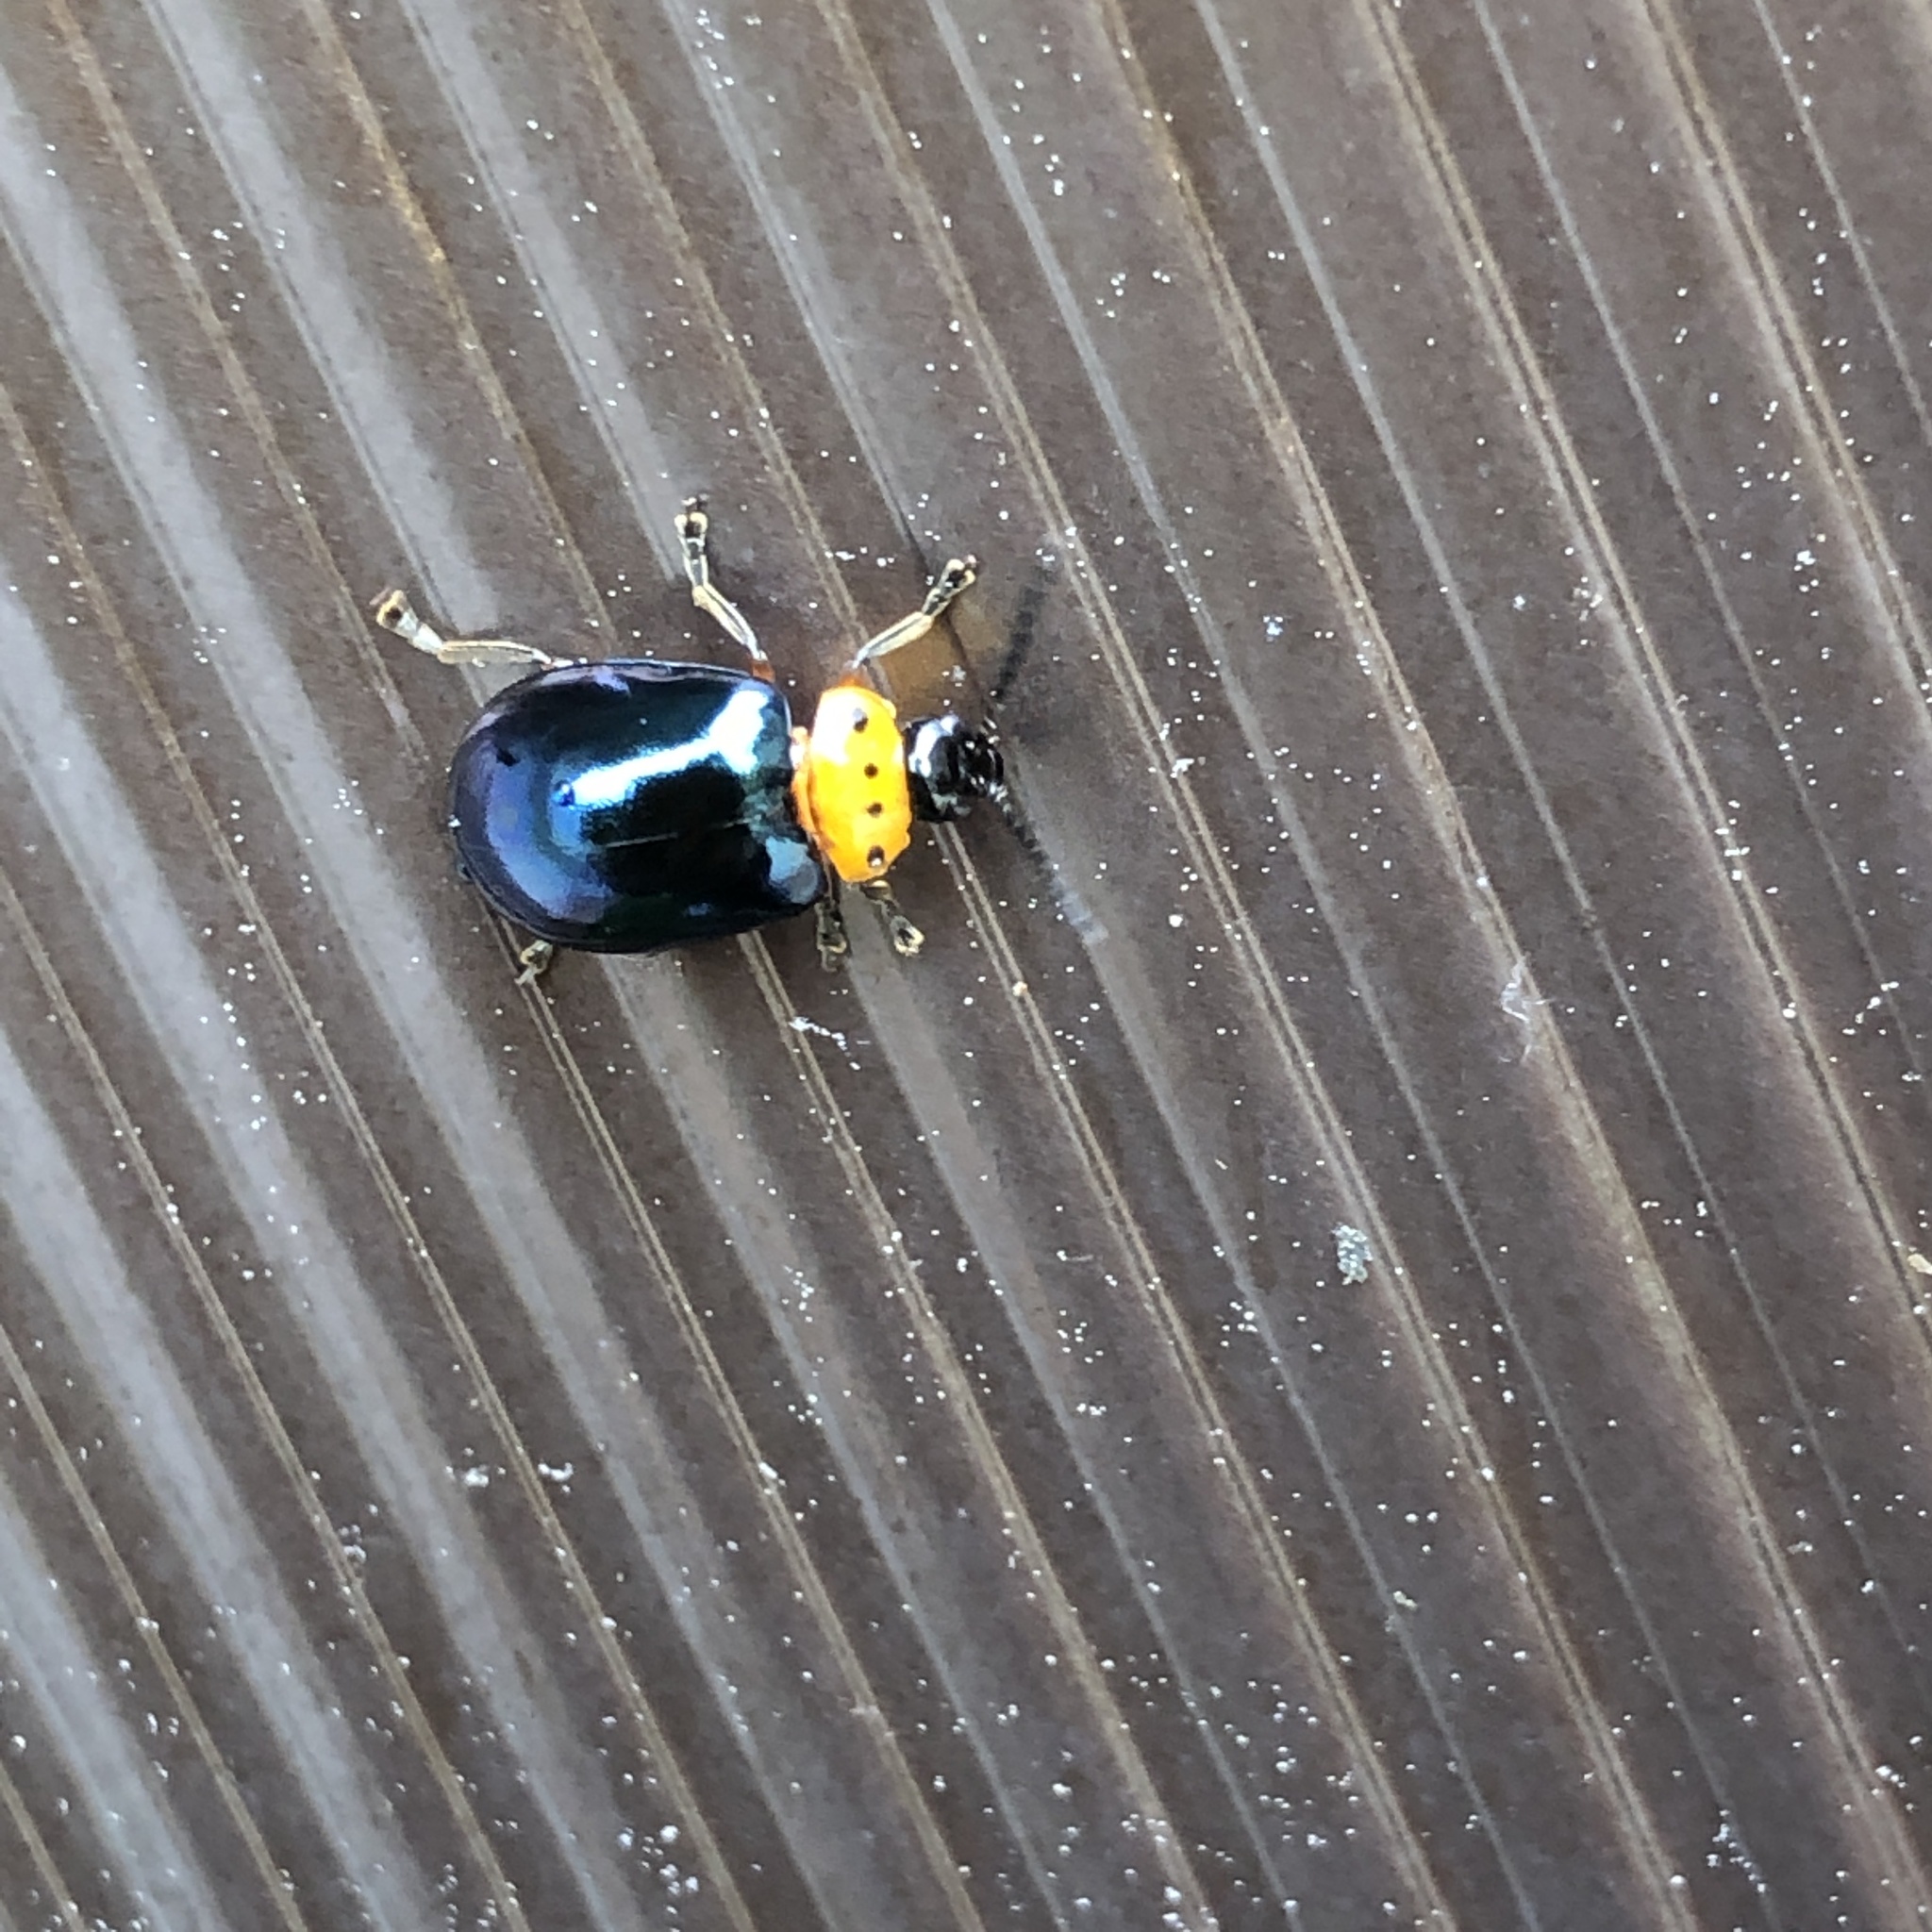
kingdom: Animalia
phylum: Arthropoda
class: Insecta
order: Coleoptera
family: Chrysomelidae
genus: Morphosphaera
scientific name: Morphosphaera caerulea
